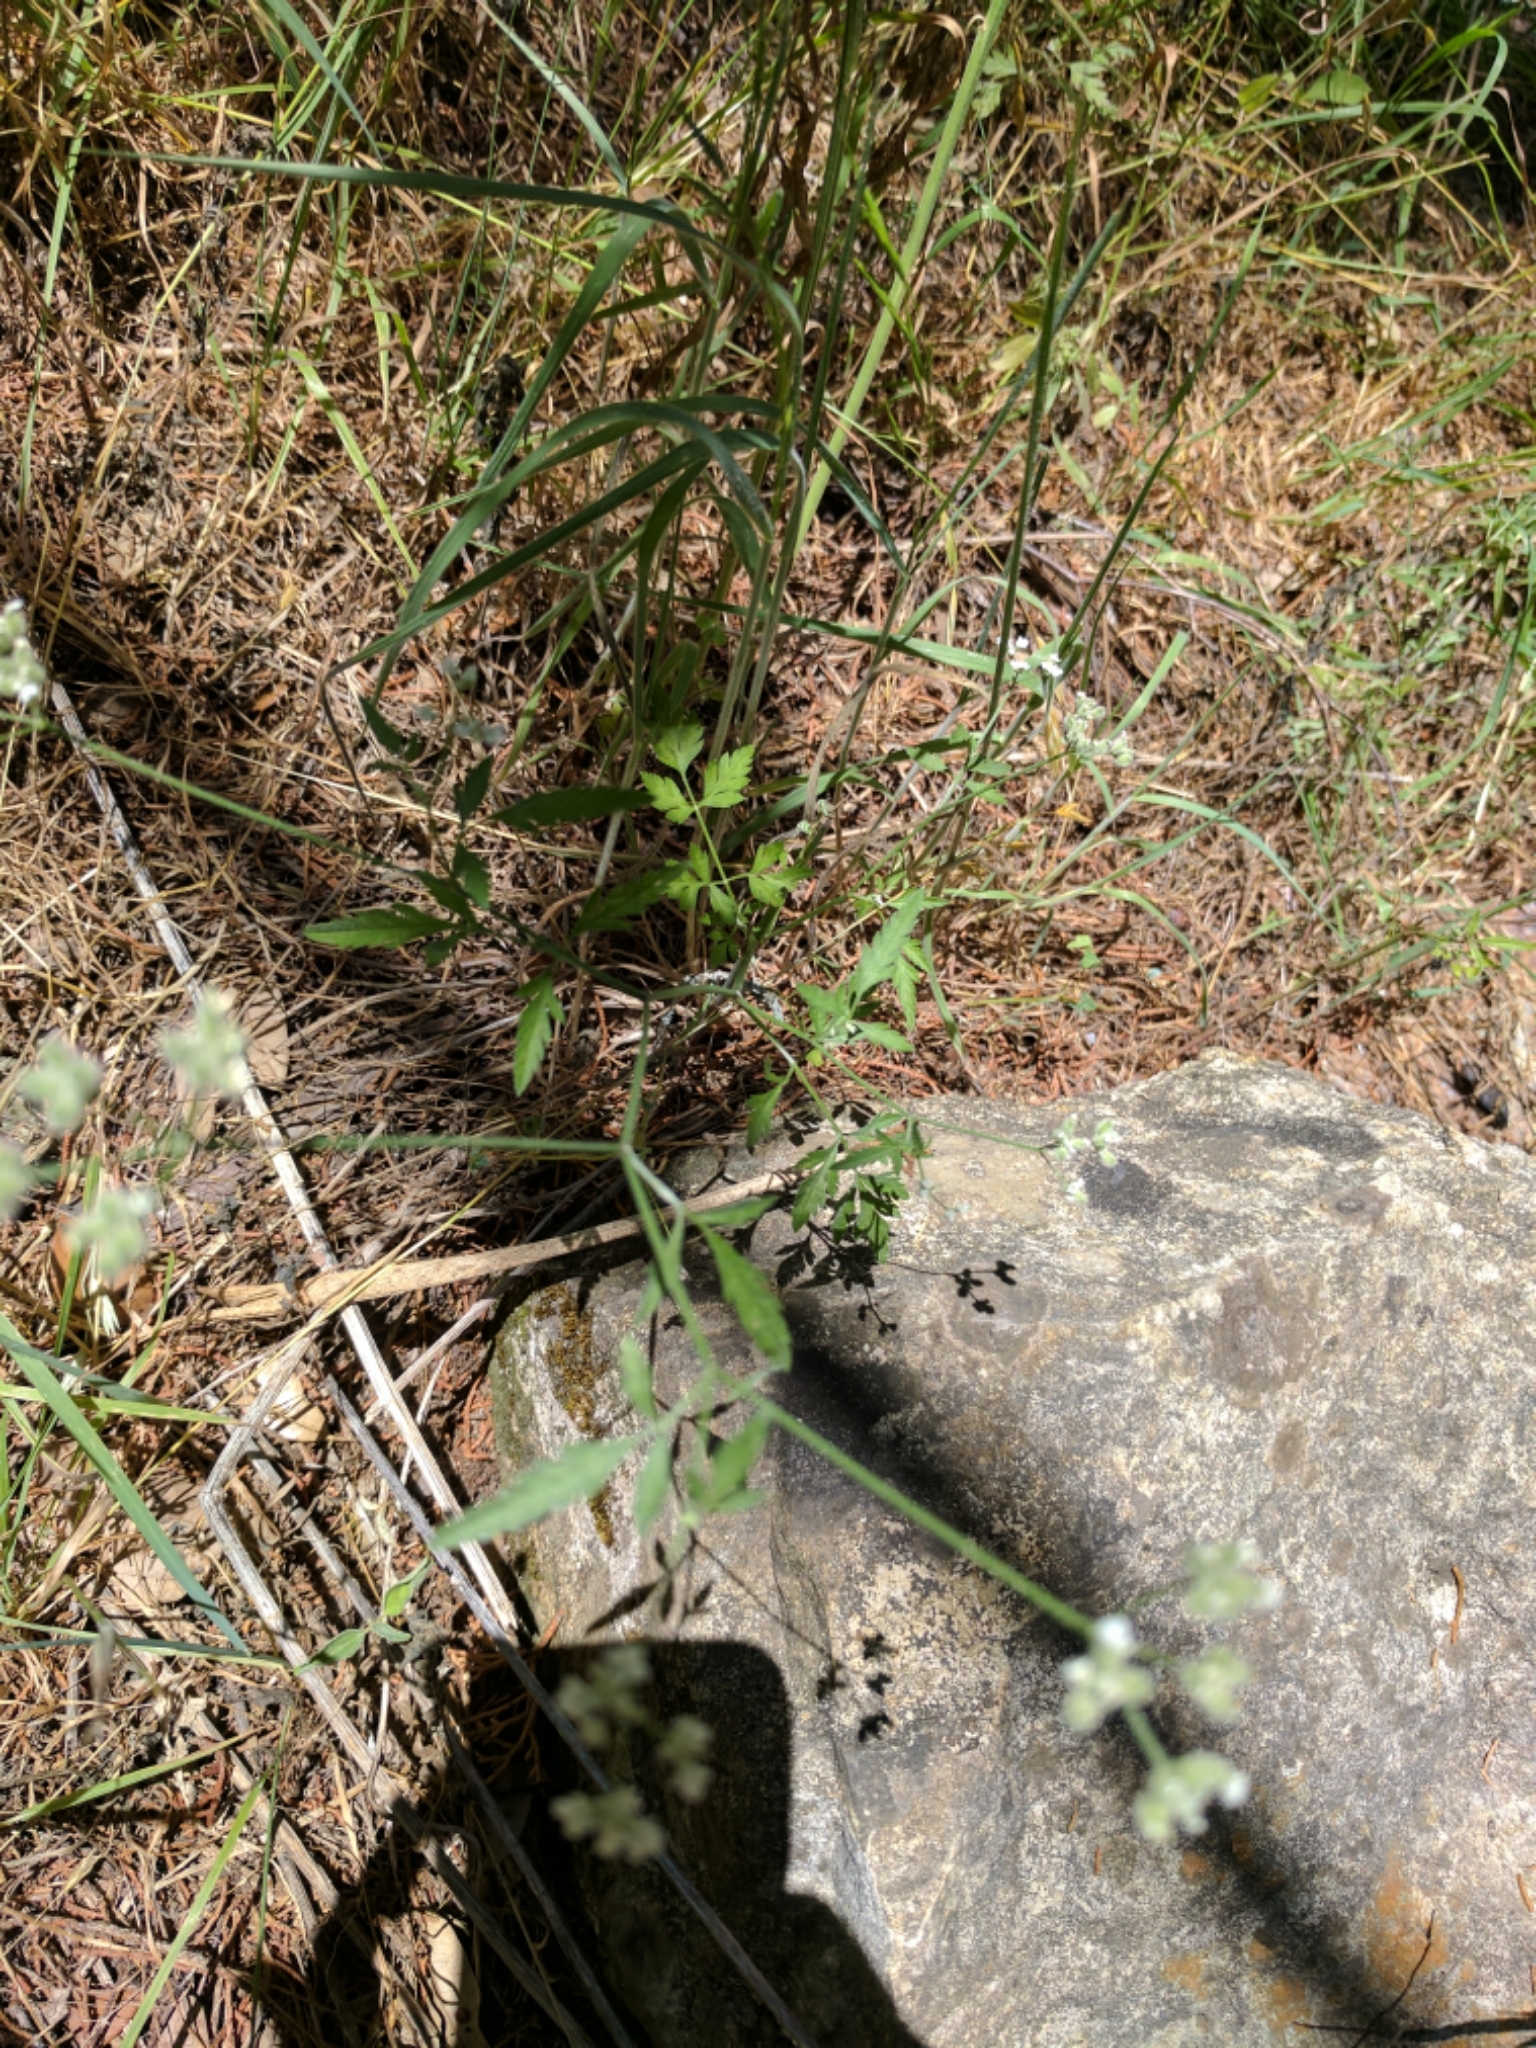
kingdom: Plantae
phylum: Tracheophyta
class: Magnoliopsida
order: Apiales
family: Apiaceae
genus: Torilis
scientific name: Torilis arvensis
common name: Spreading hedge-parsley
